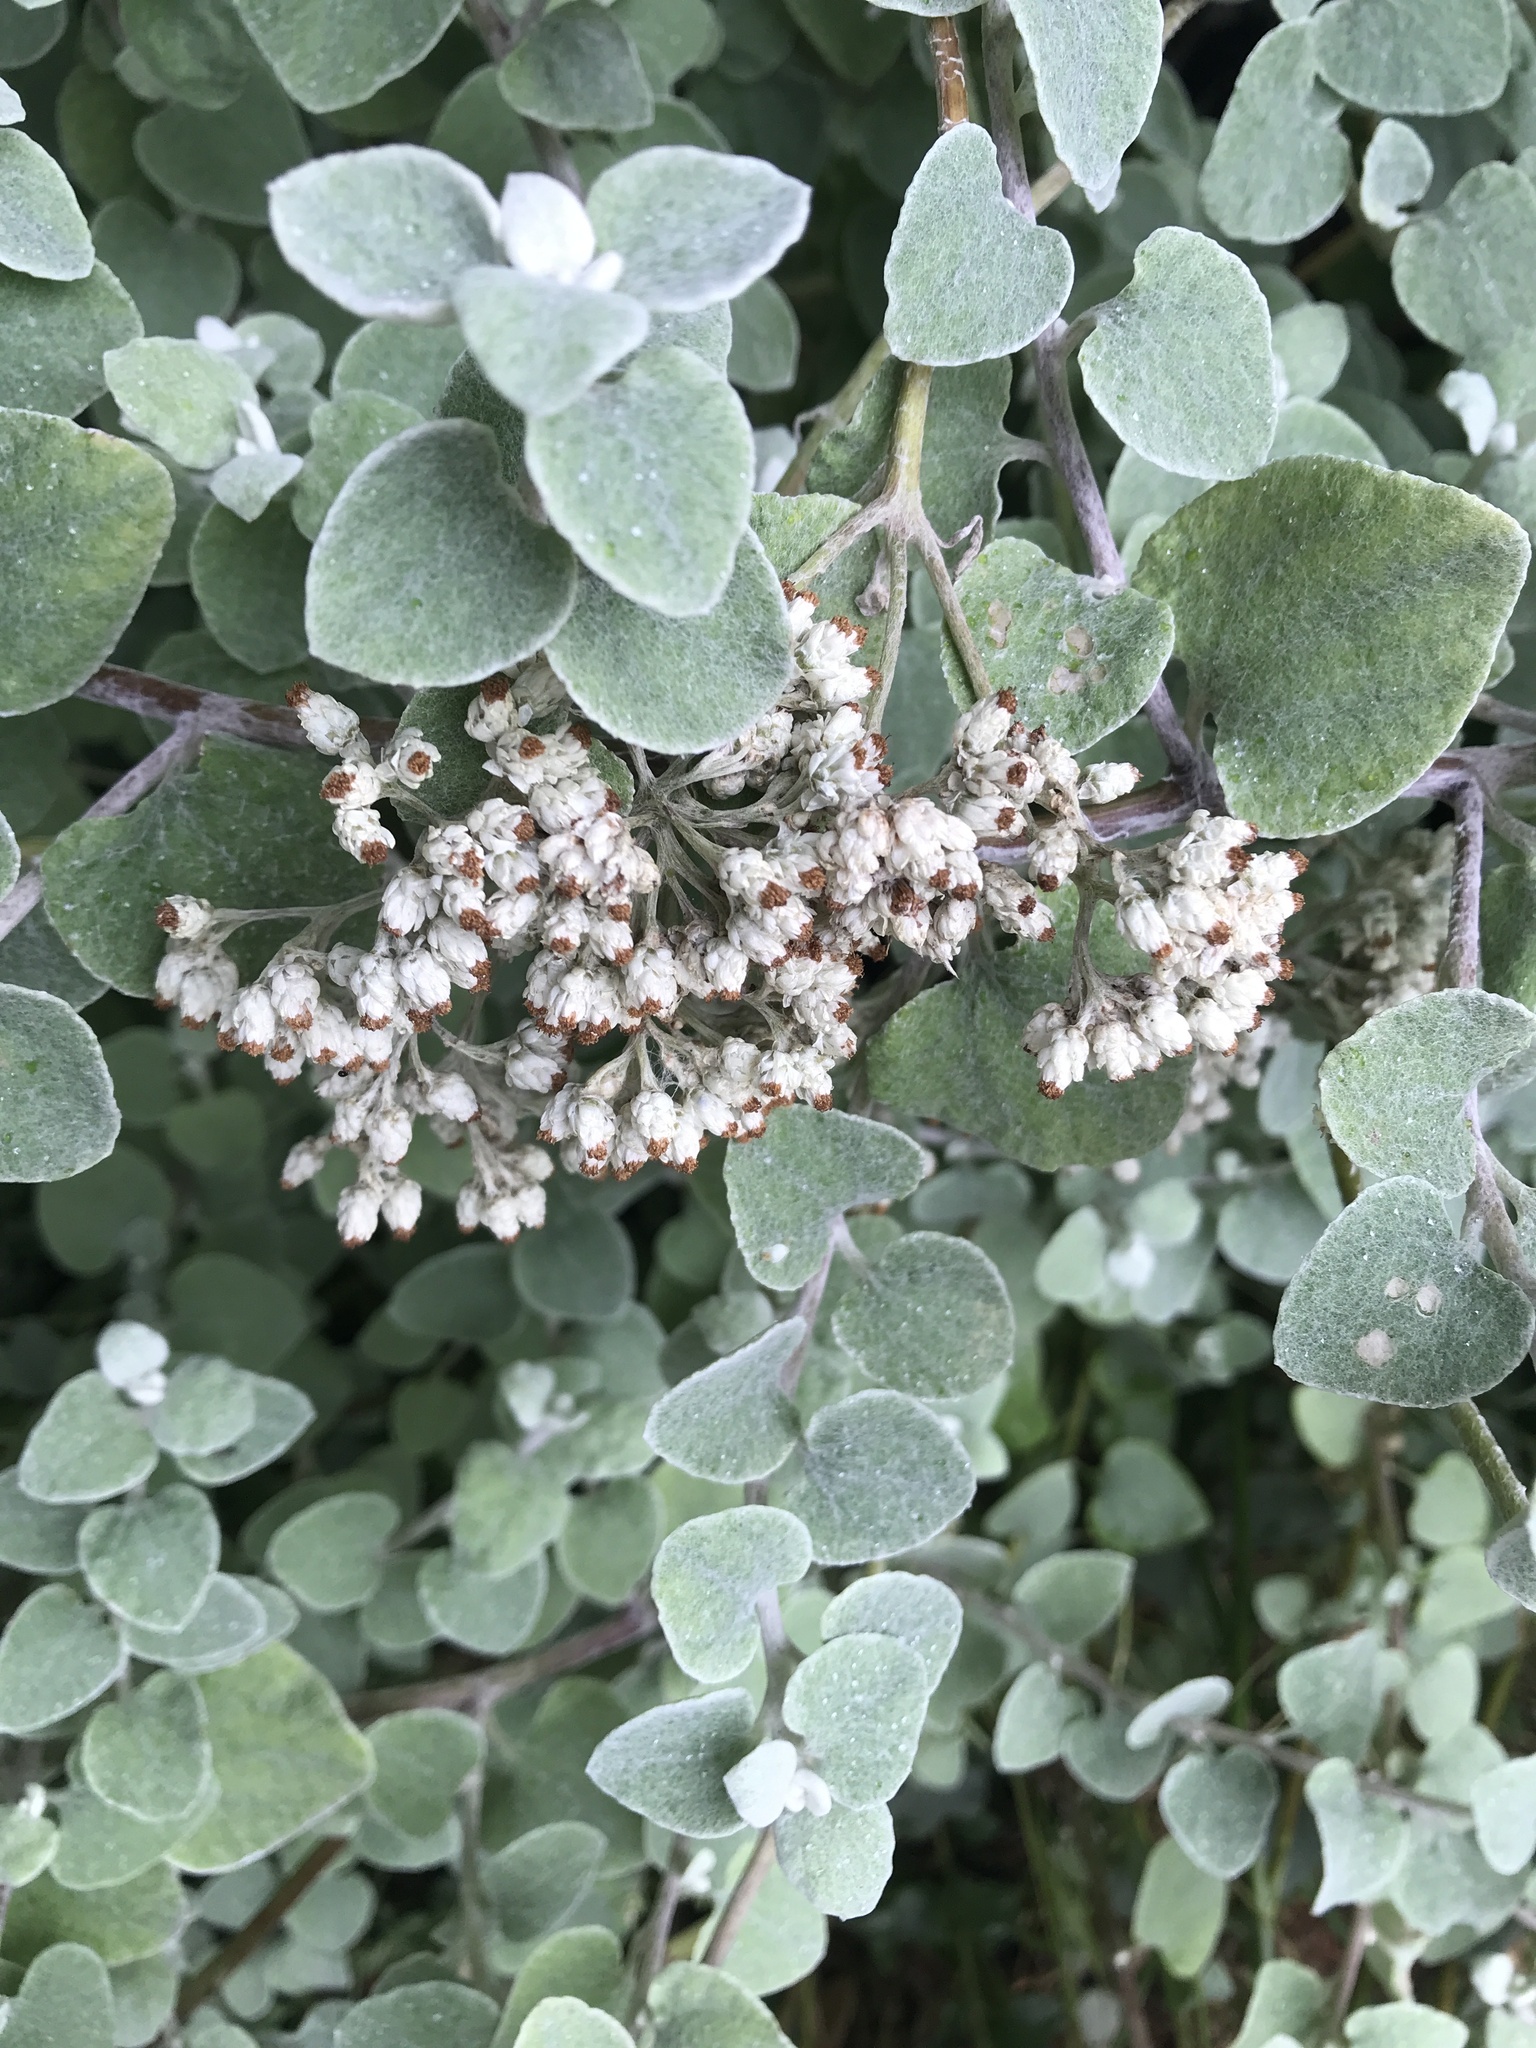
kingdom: Plantae
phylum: Tracheophyta
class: Magnoliopsida
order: Asterales
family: Asteraceae
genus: Helichrysum
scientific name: Helichrysum petiolare
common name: Licorice-plant
